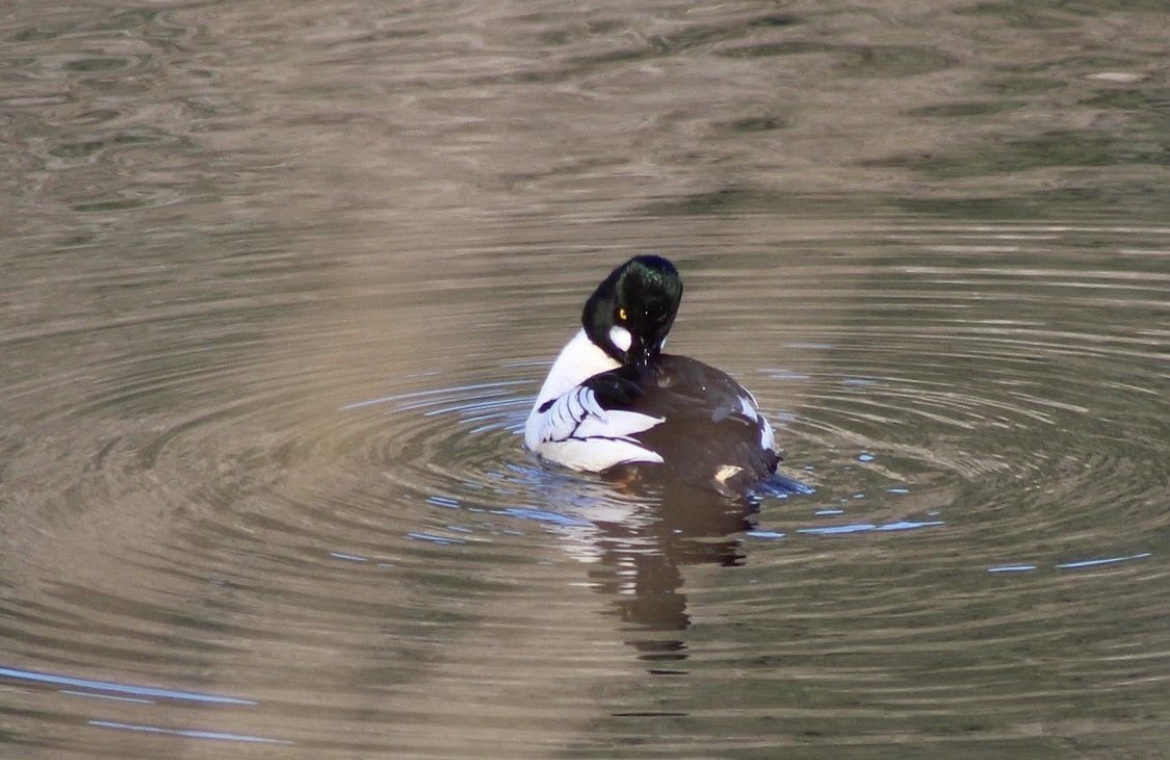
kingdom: Animalia
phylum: Chordata
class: Aves
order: Anseriformes
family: Anatidae
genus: Bucephala
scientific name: Bucephala clangula
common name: Common goldeneye
